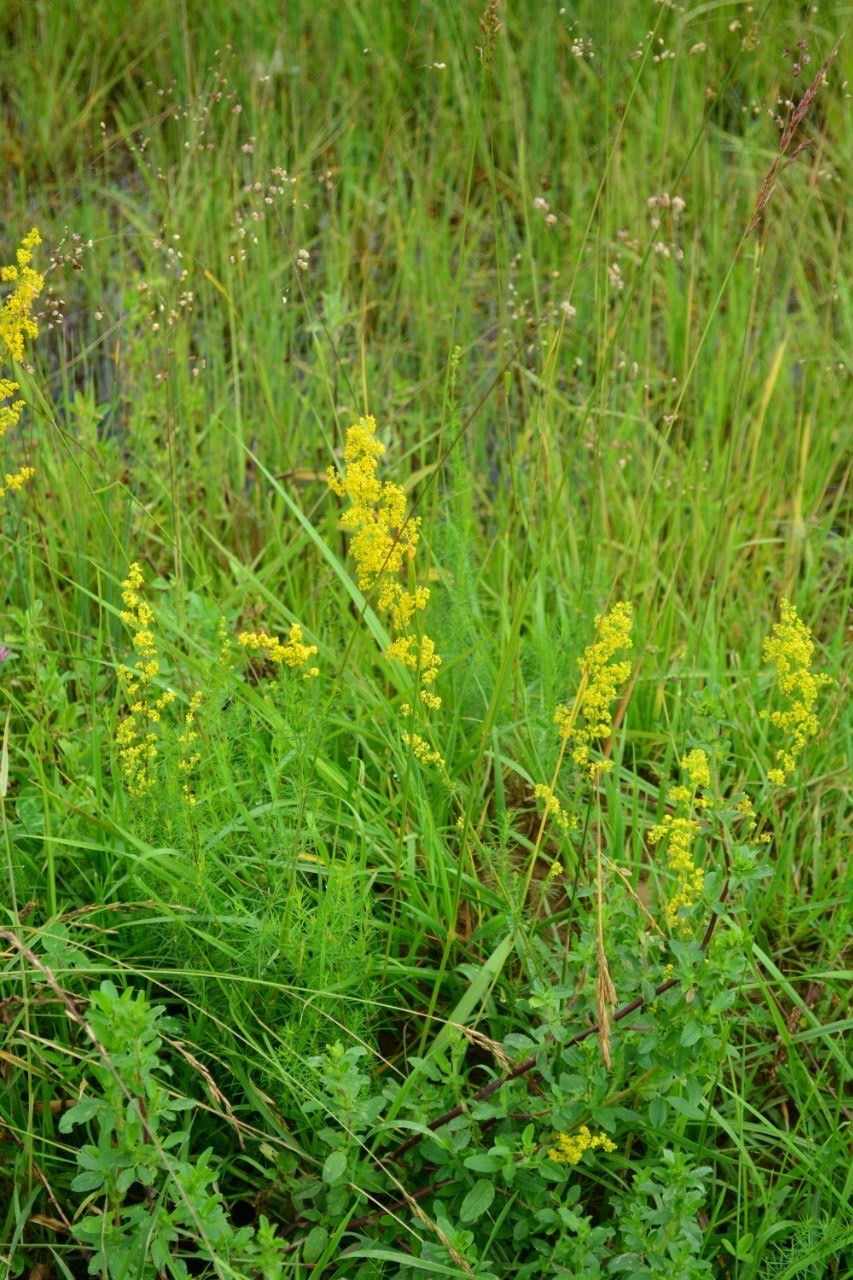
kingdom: Plantae
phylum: Tracheophyta
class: Magnoliopsida
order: Gentianales
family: Rubiaceae
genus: Galium
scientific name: Galium verum
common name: Lady's bedstraw
